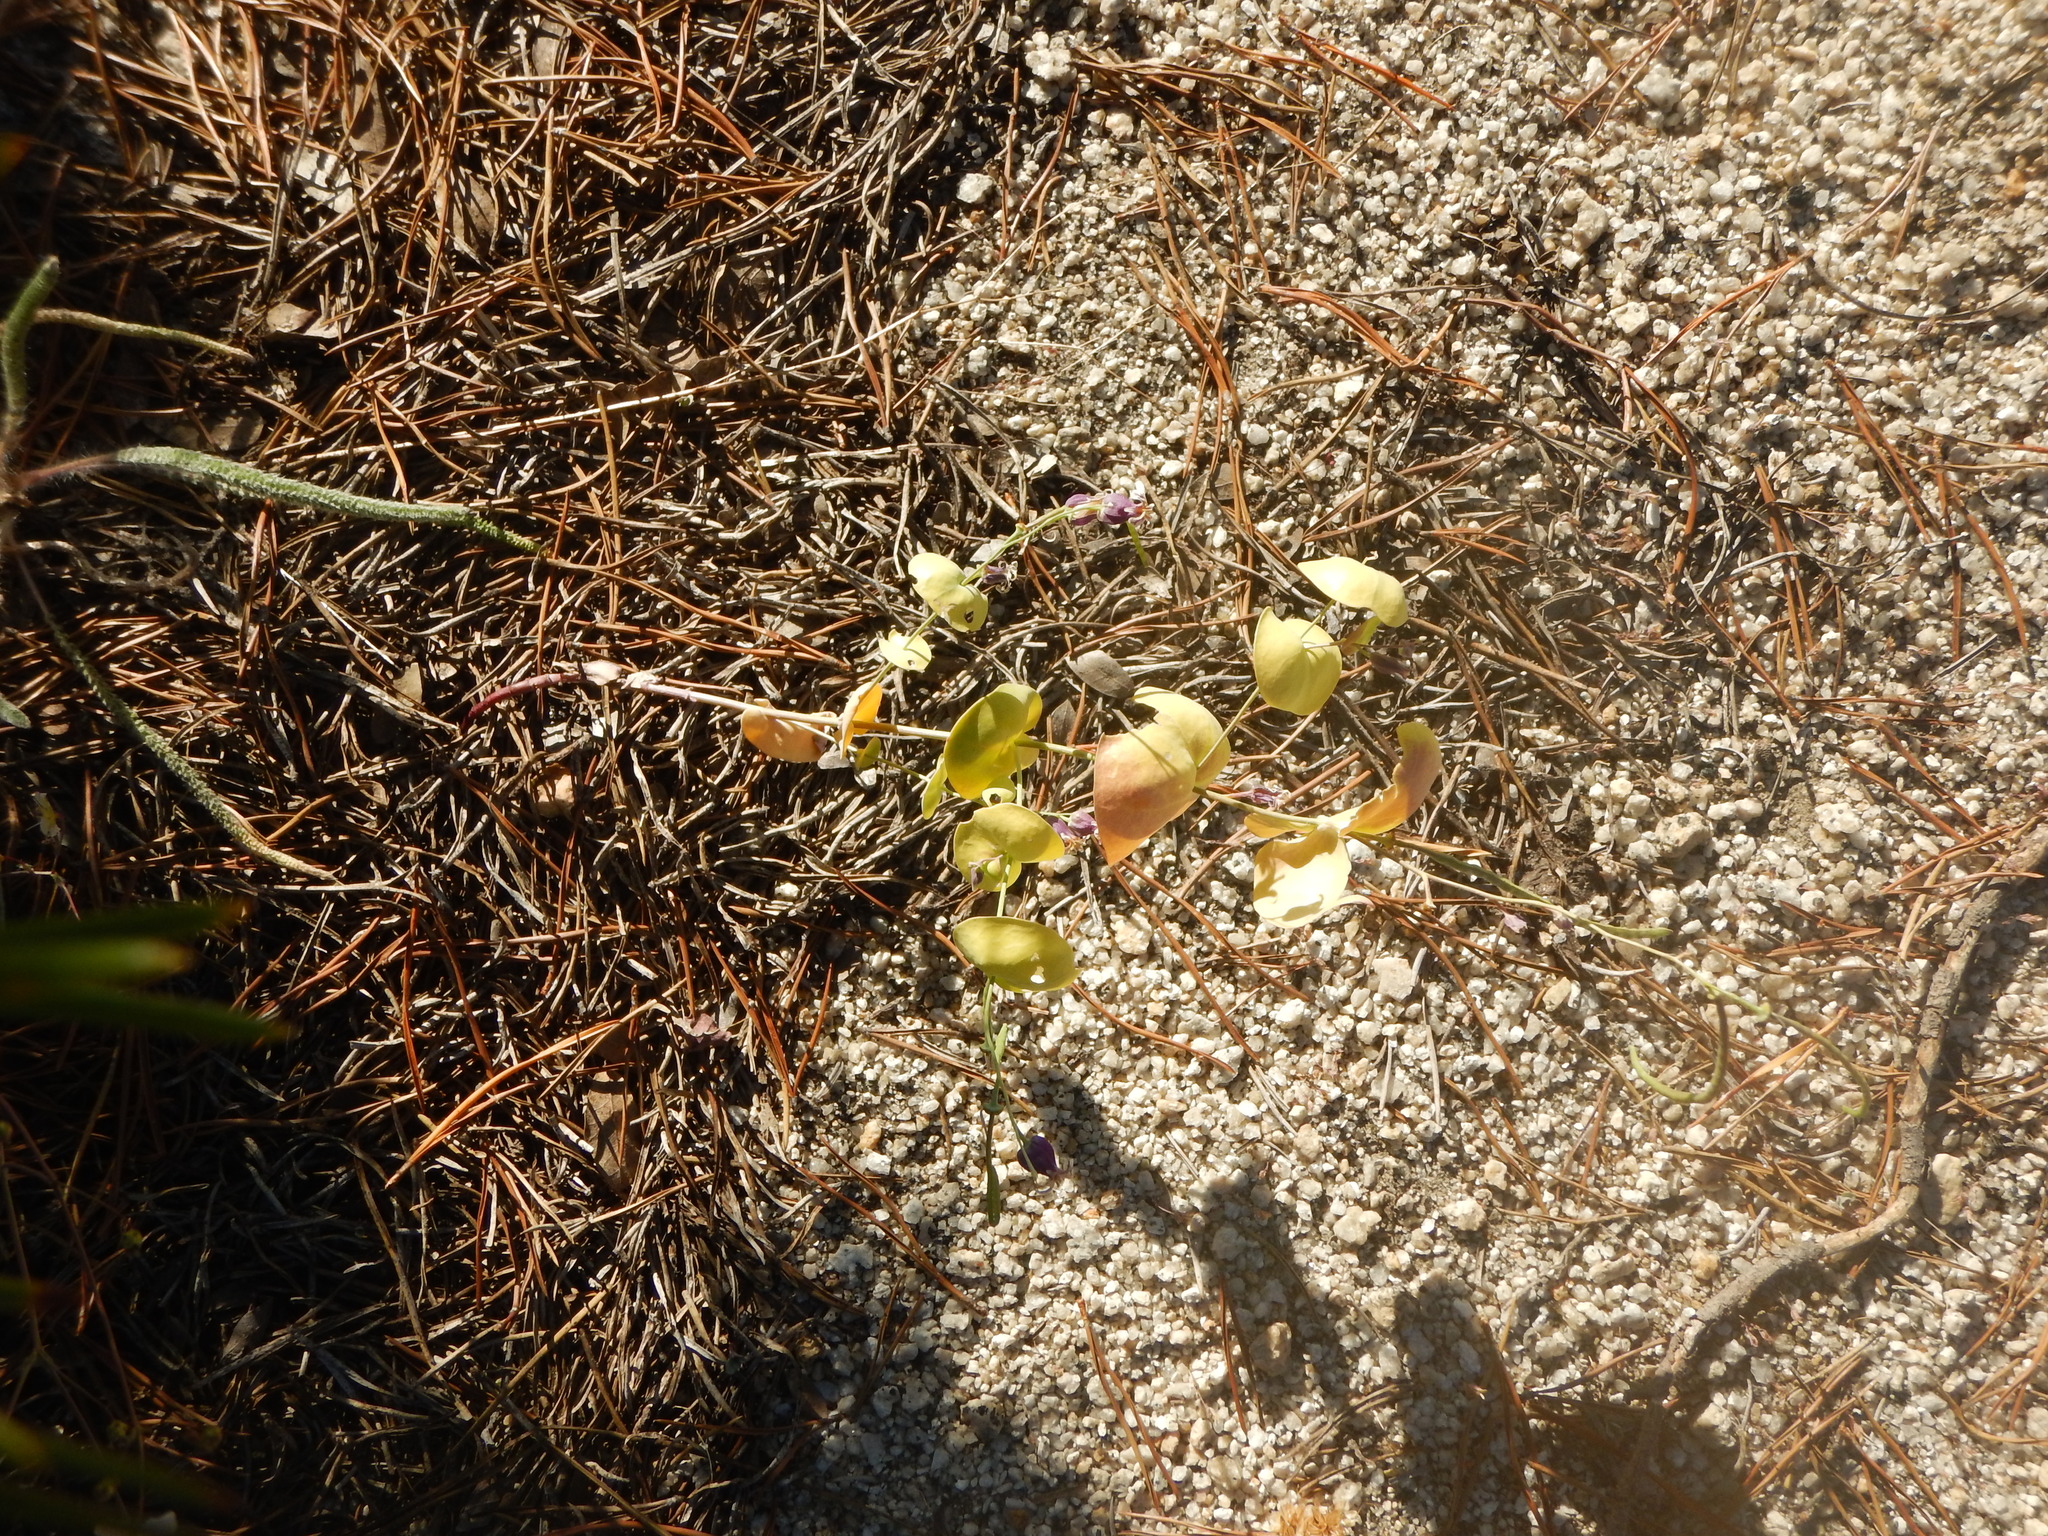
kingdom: Plantae
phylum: Tracheophyta
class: Magnoliopsida
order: Brassicales
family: Brassicaceae
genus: Streptanthus
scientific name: Streptanthus tortuosus
